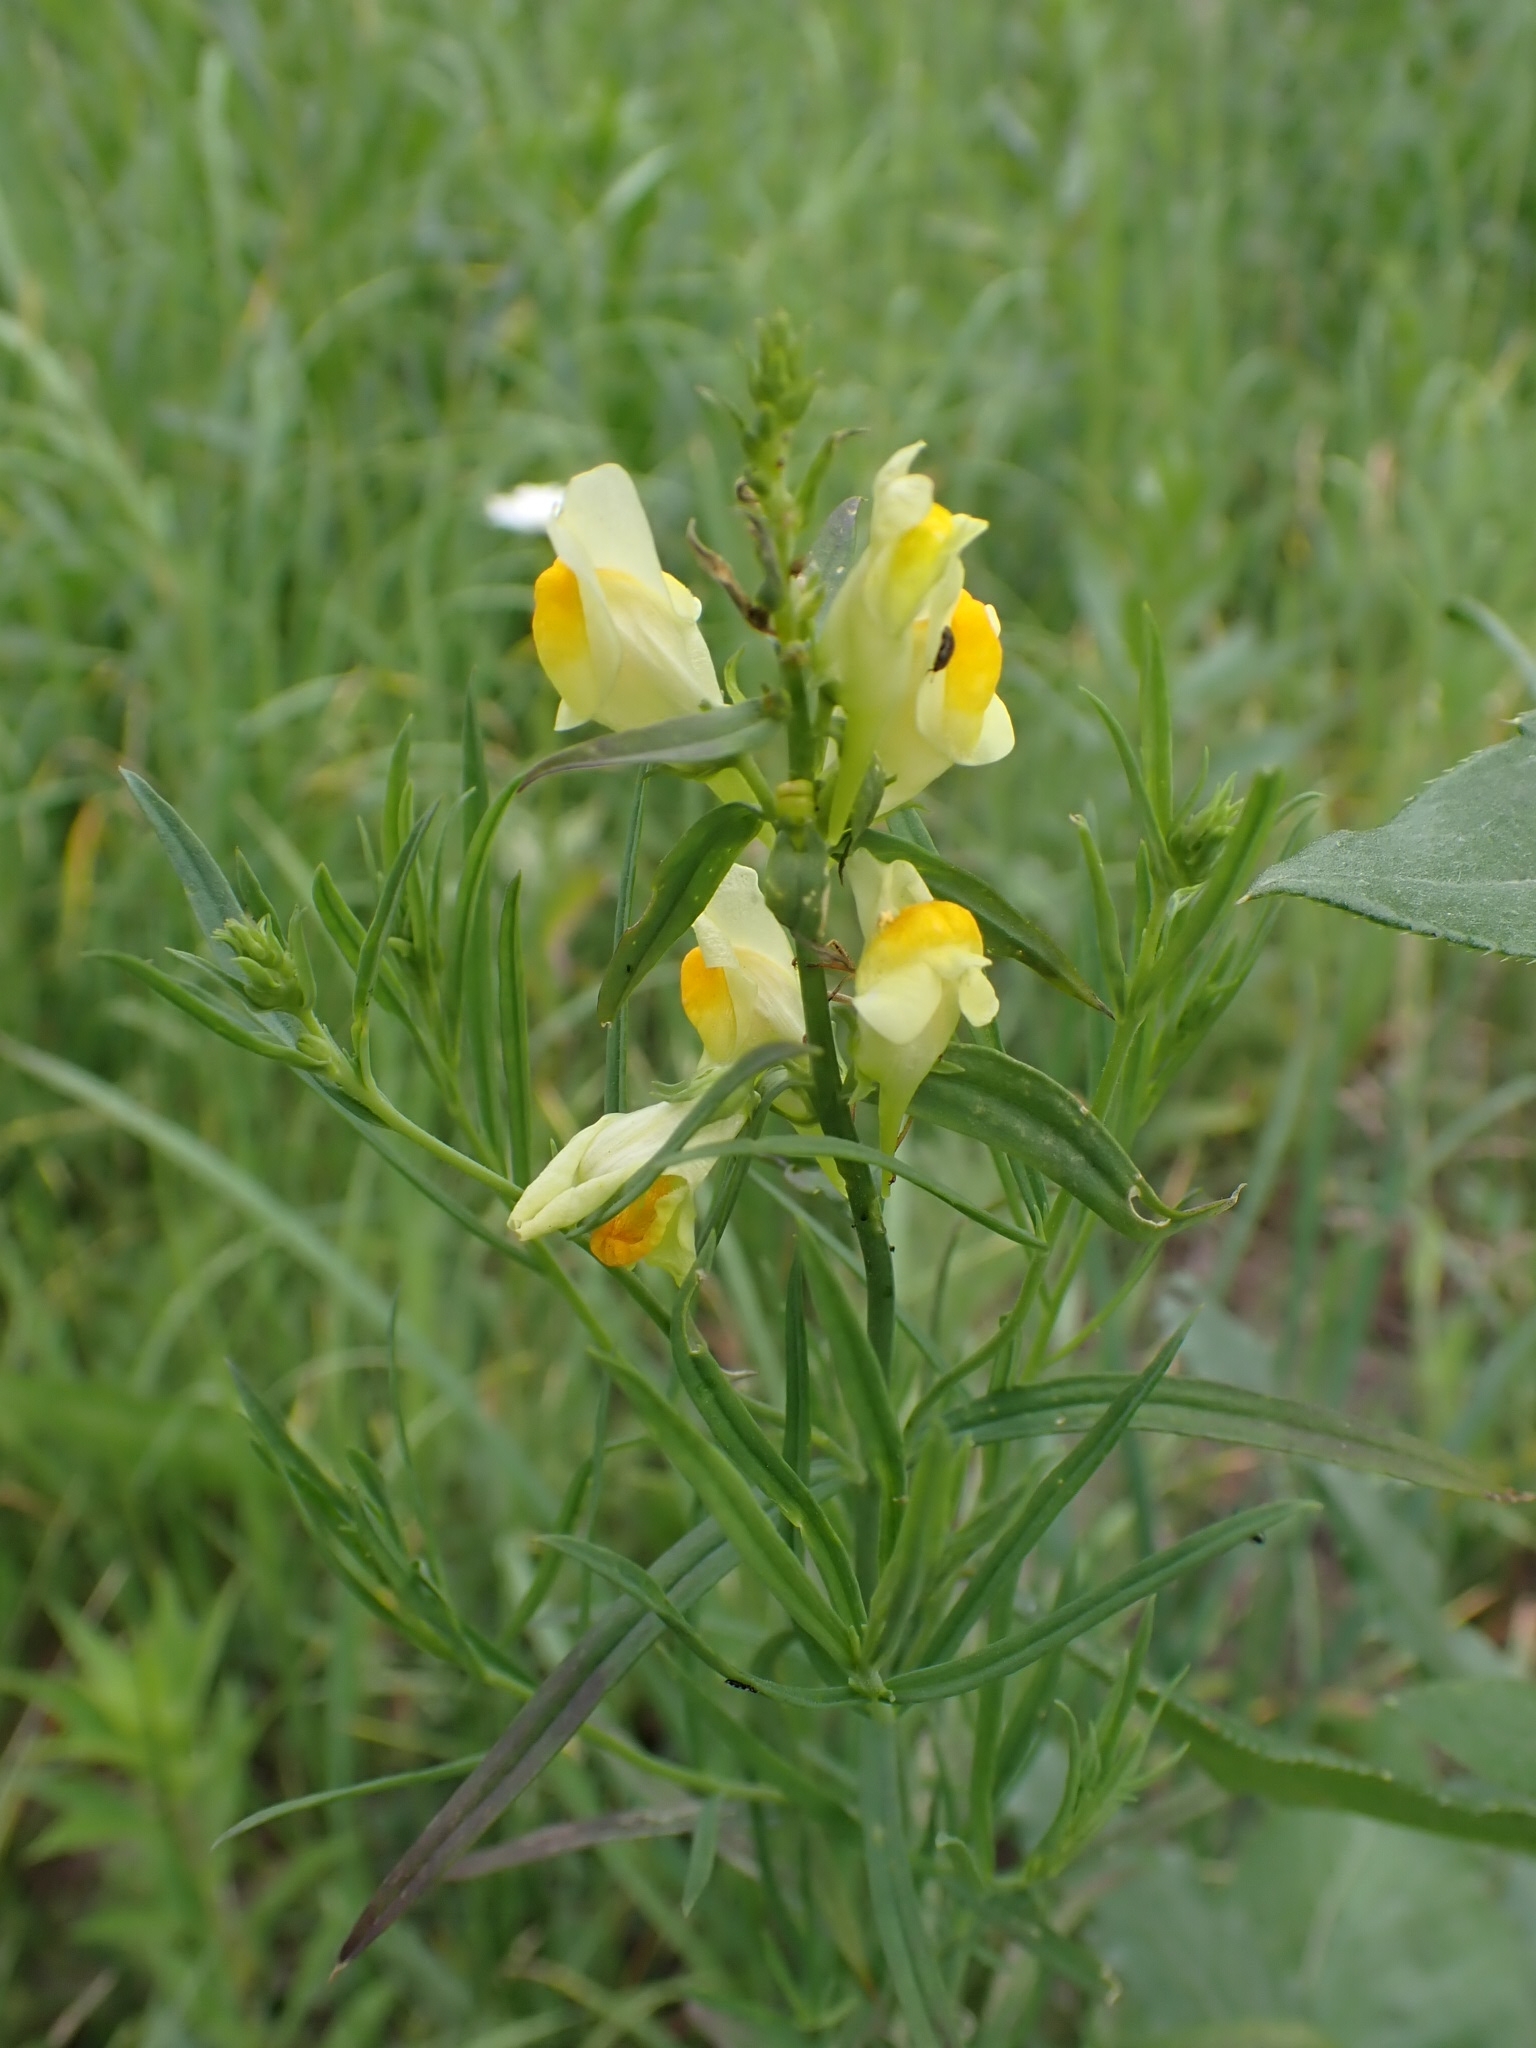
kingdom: Plantae
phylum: Tracheophyta
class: Magnoliopsida
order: Lamiales
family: Plantaginaceae
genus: Linaria
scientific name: Linaria vulgaris
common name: Butter and eggs
